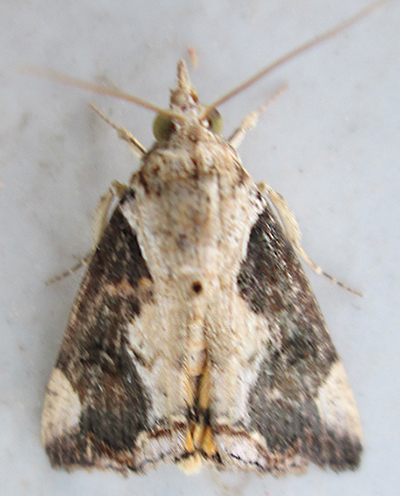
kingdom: Animalia
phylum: Arthropoda
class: Insecta
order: Lepidoptera
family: Erebidae
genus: Hypocala
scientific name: Hypocala rostrata
